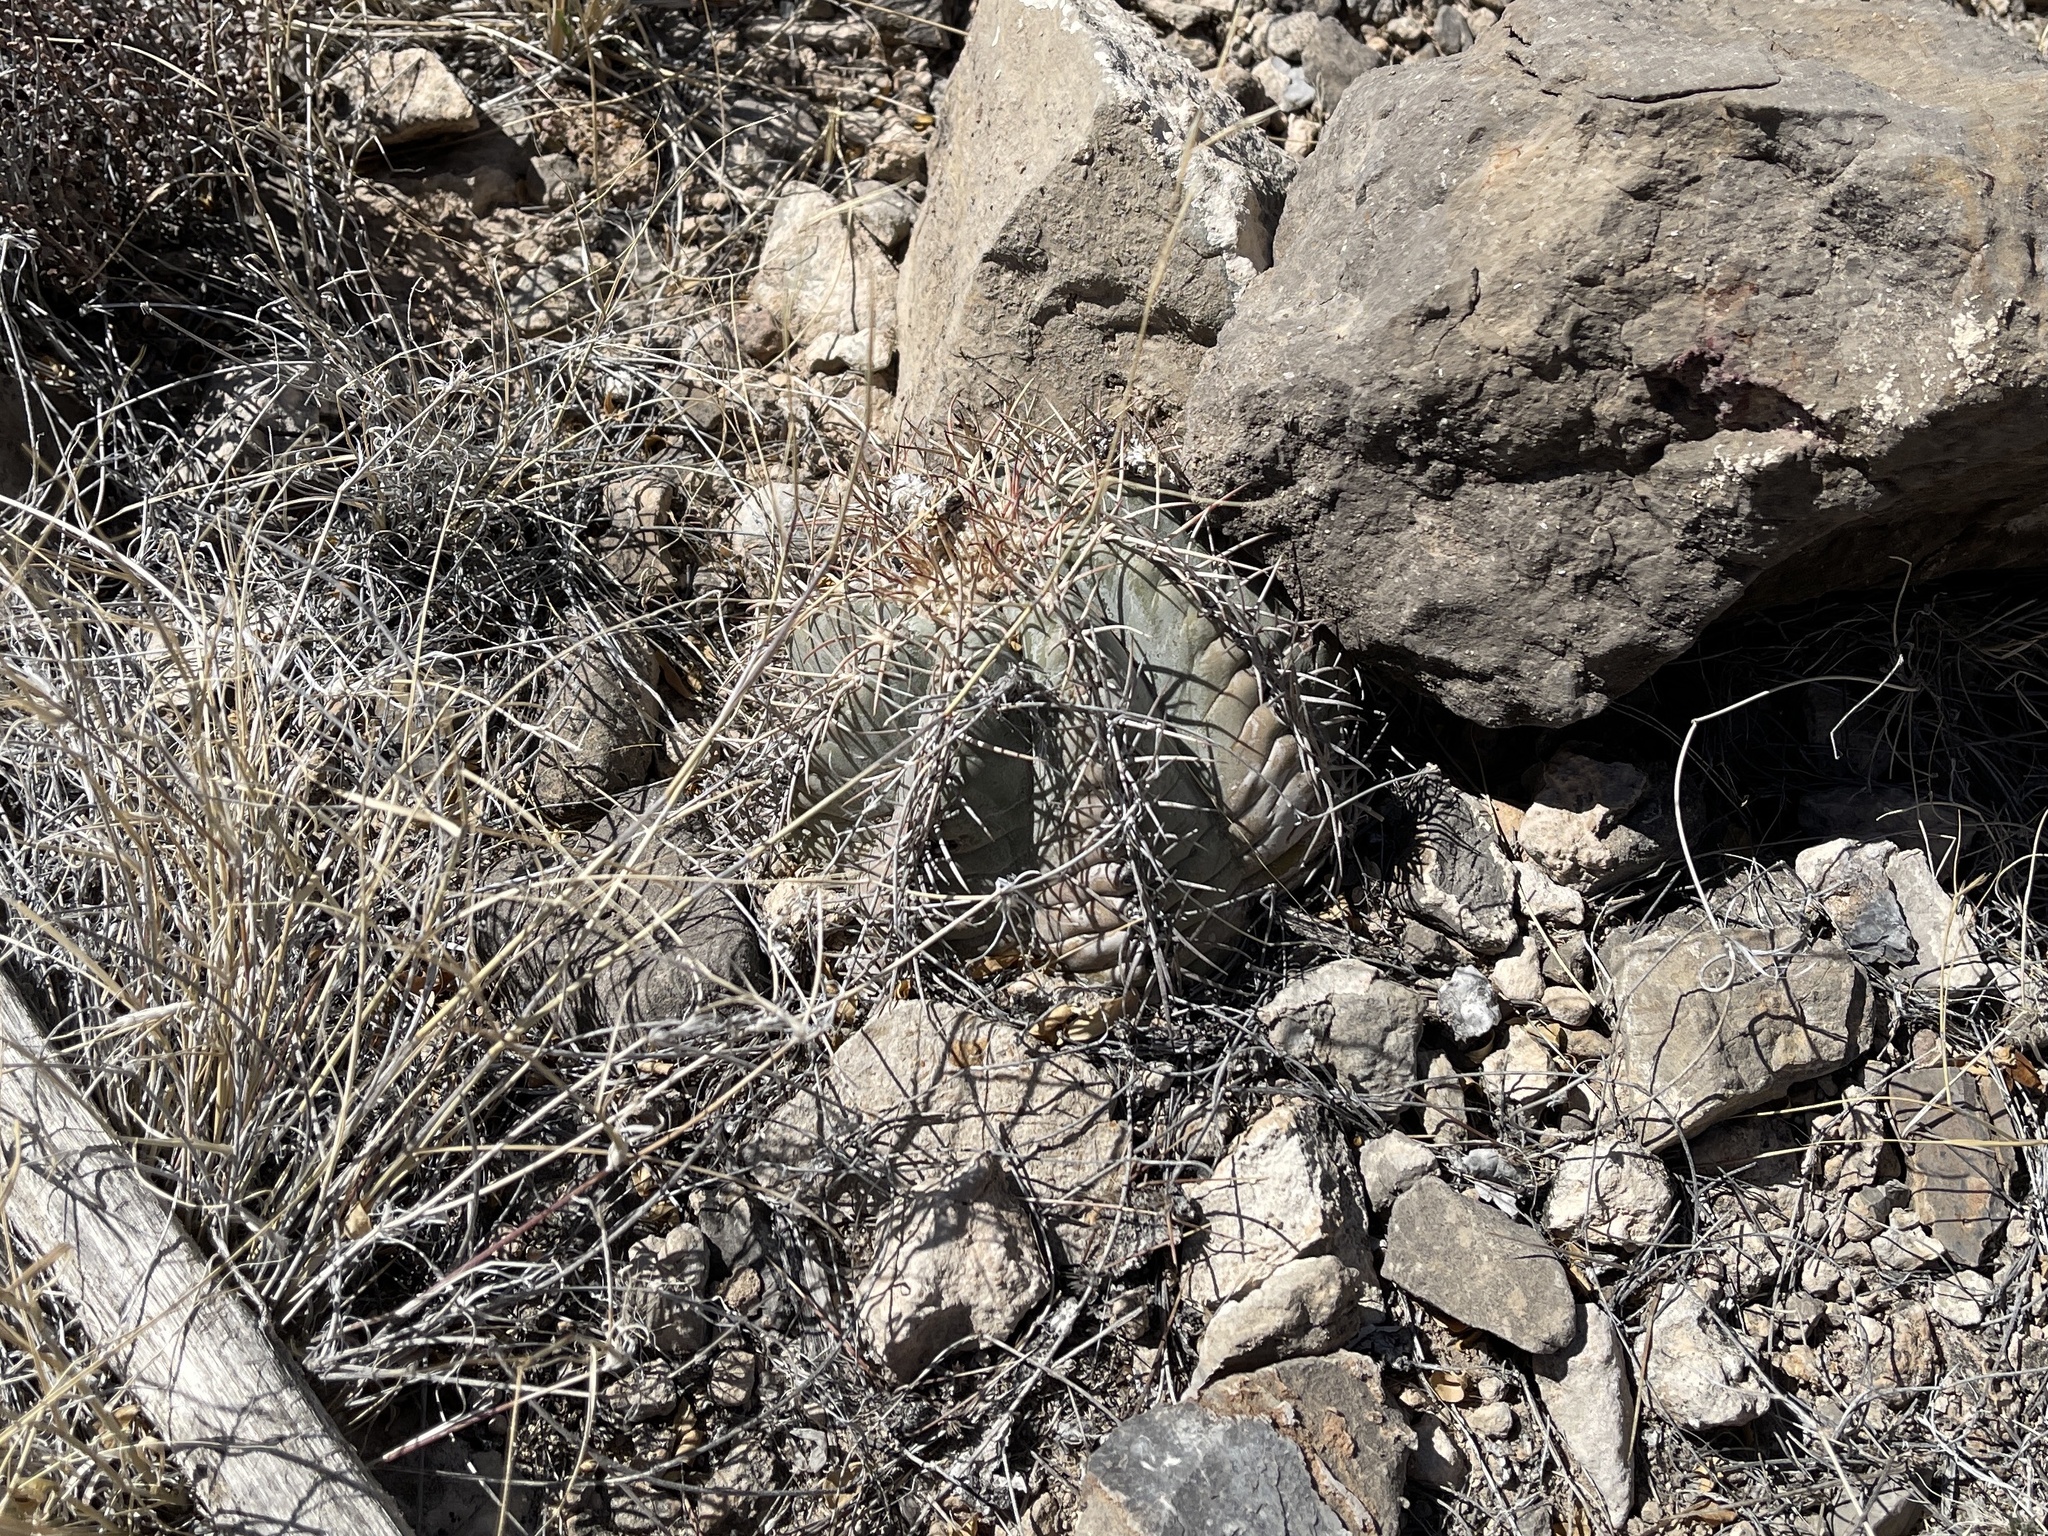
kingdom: Plantae
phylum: Tracheophyta
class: Magnoliopsida
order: Caryophyllales
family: Cactaceae
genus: Echinocactus
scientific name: Echinocactus horizonthalonius
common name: Devilshead
